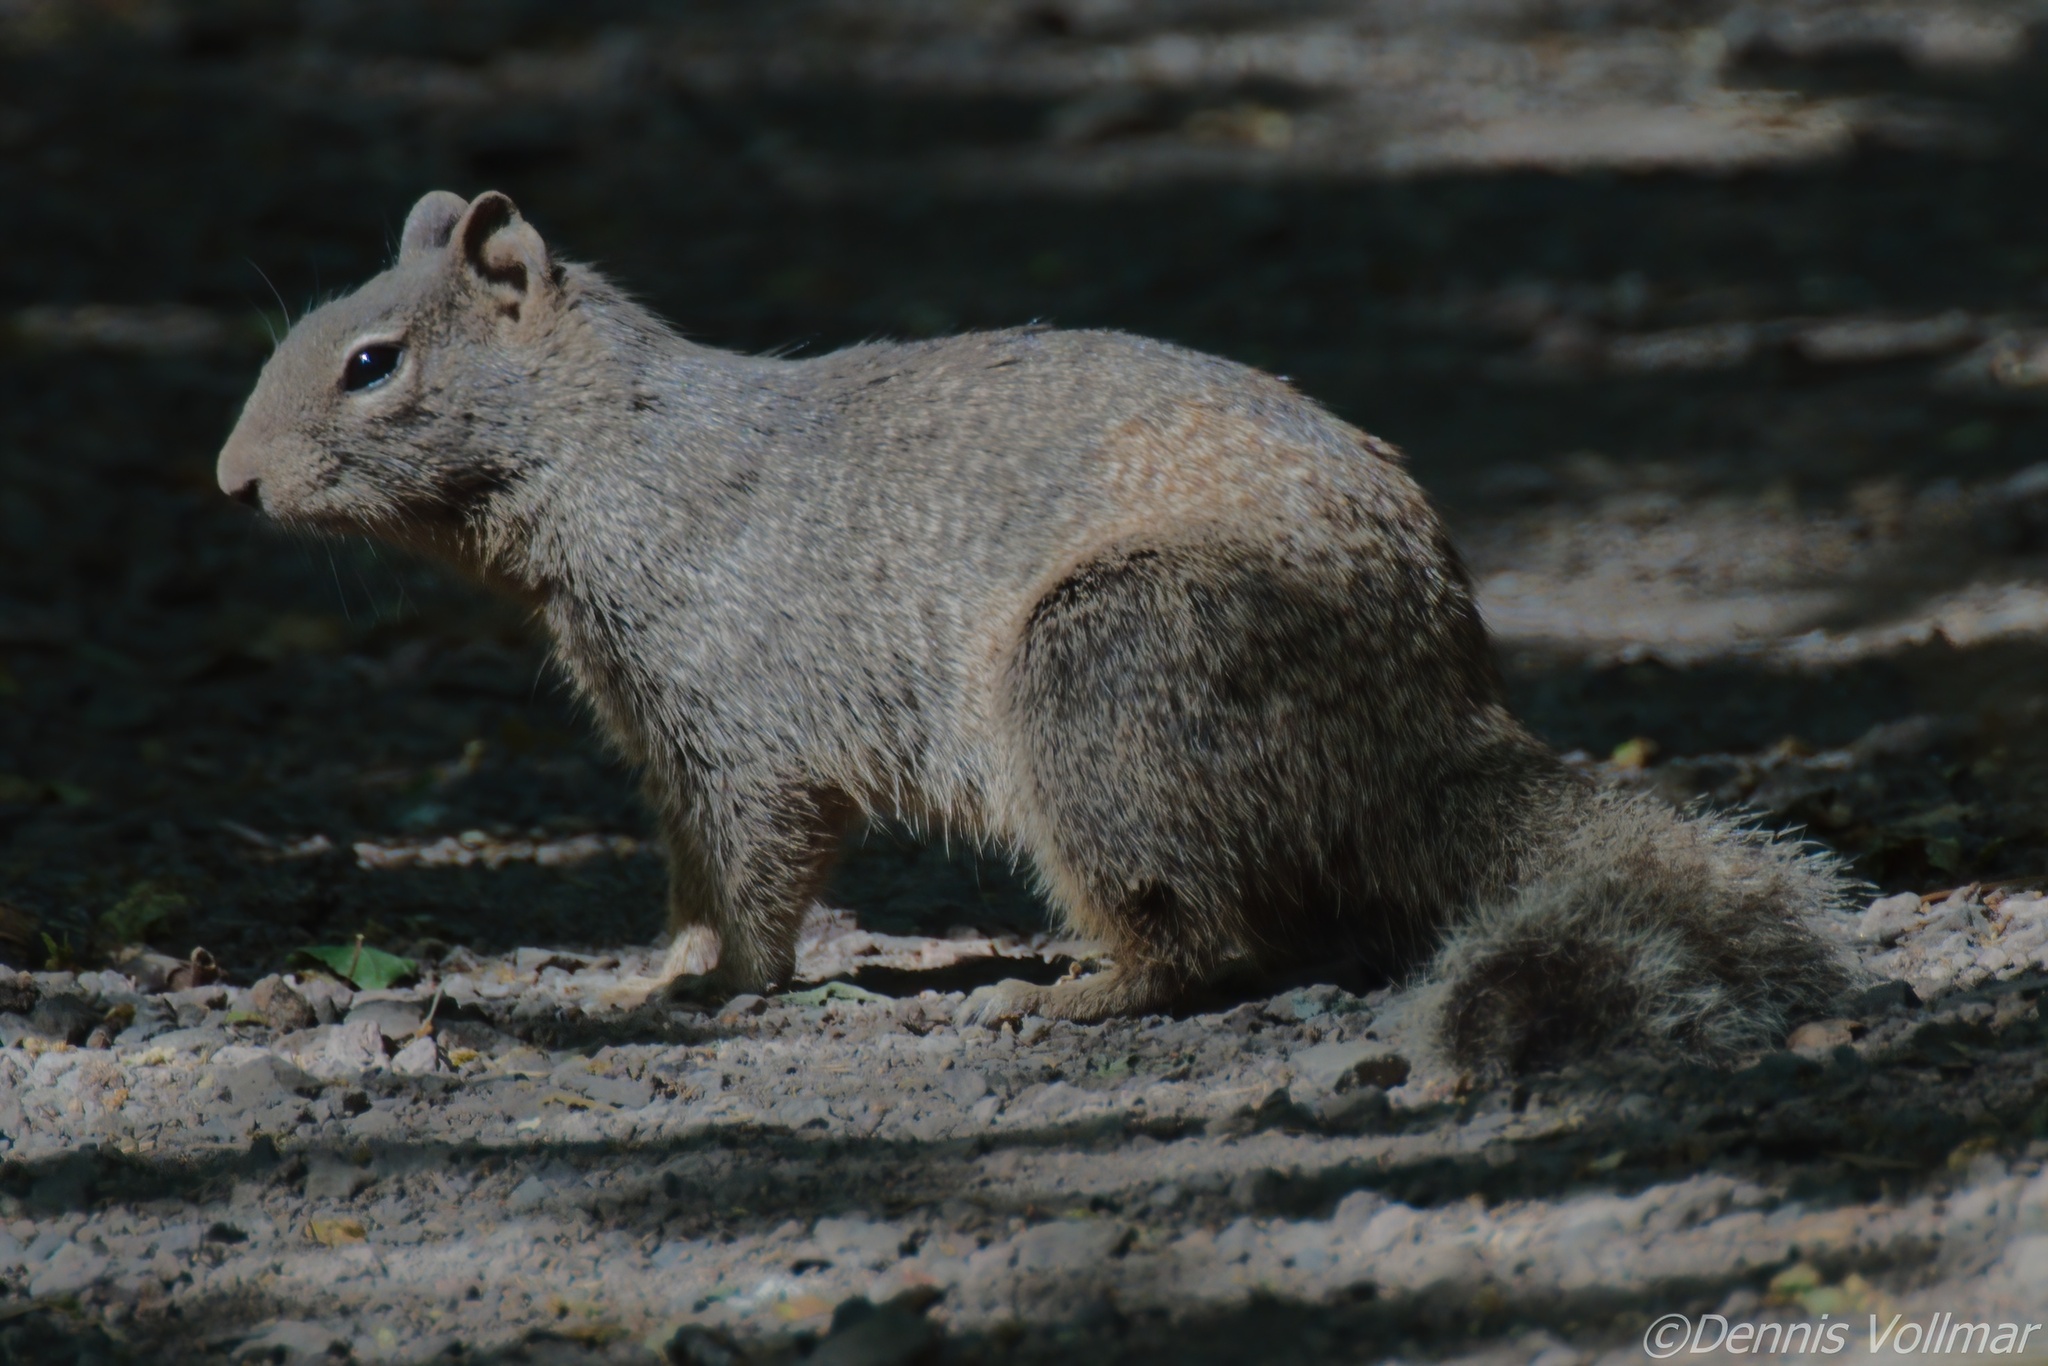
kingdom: Animalia
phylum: Chordata
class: Mammalia
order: Rodentia
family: Sciuridae
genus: Otospermophilus
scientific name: Otospermophilus variegatus
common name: Rock squirrel
